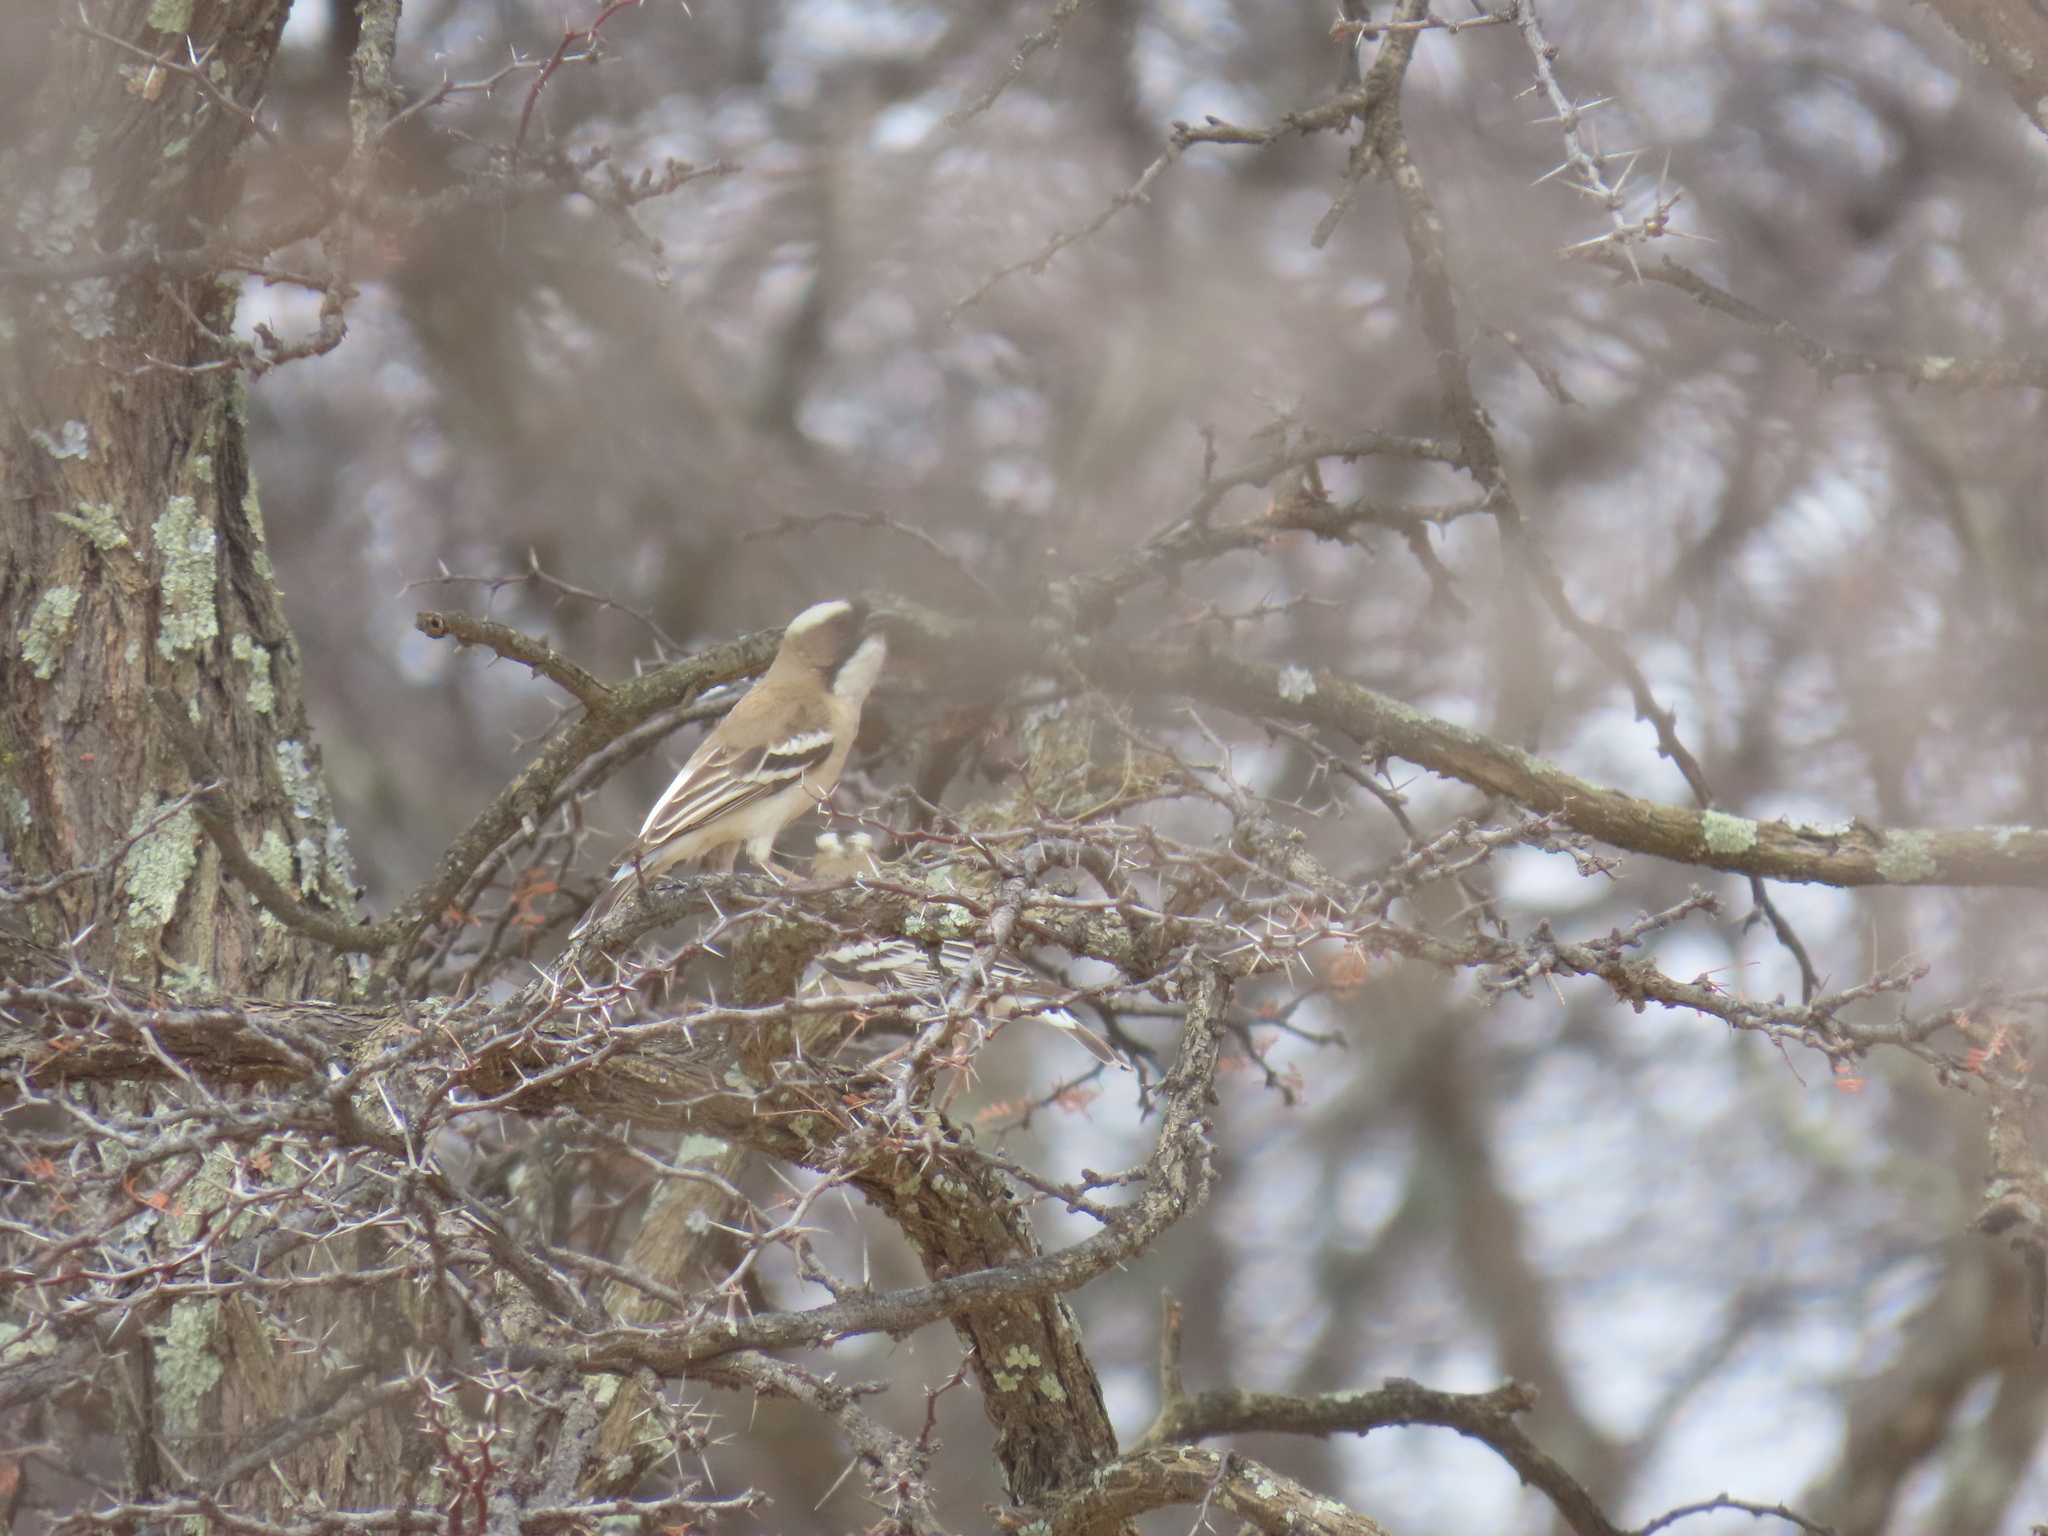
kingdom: Animalia
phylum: Chordata
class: Aves
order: Passeriformes
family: Passeridae
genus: Plocepasser
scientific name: Plocepasser mahali
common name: White-browed sparrow-weaver
